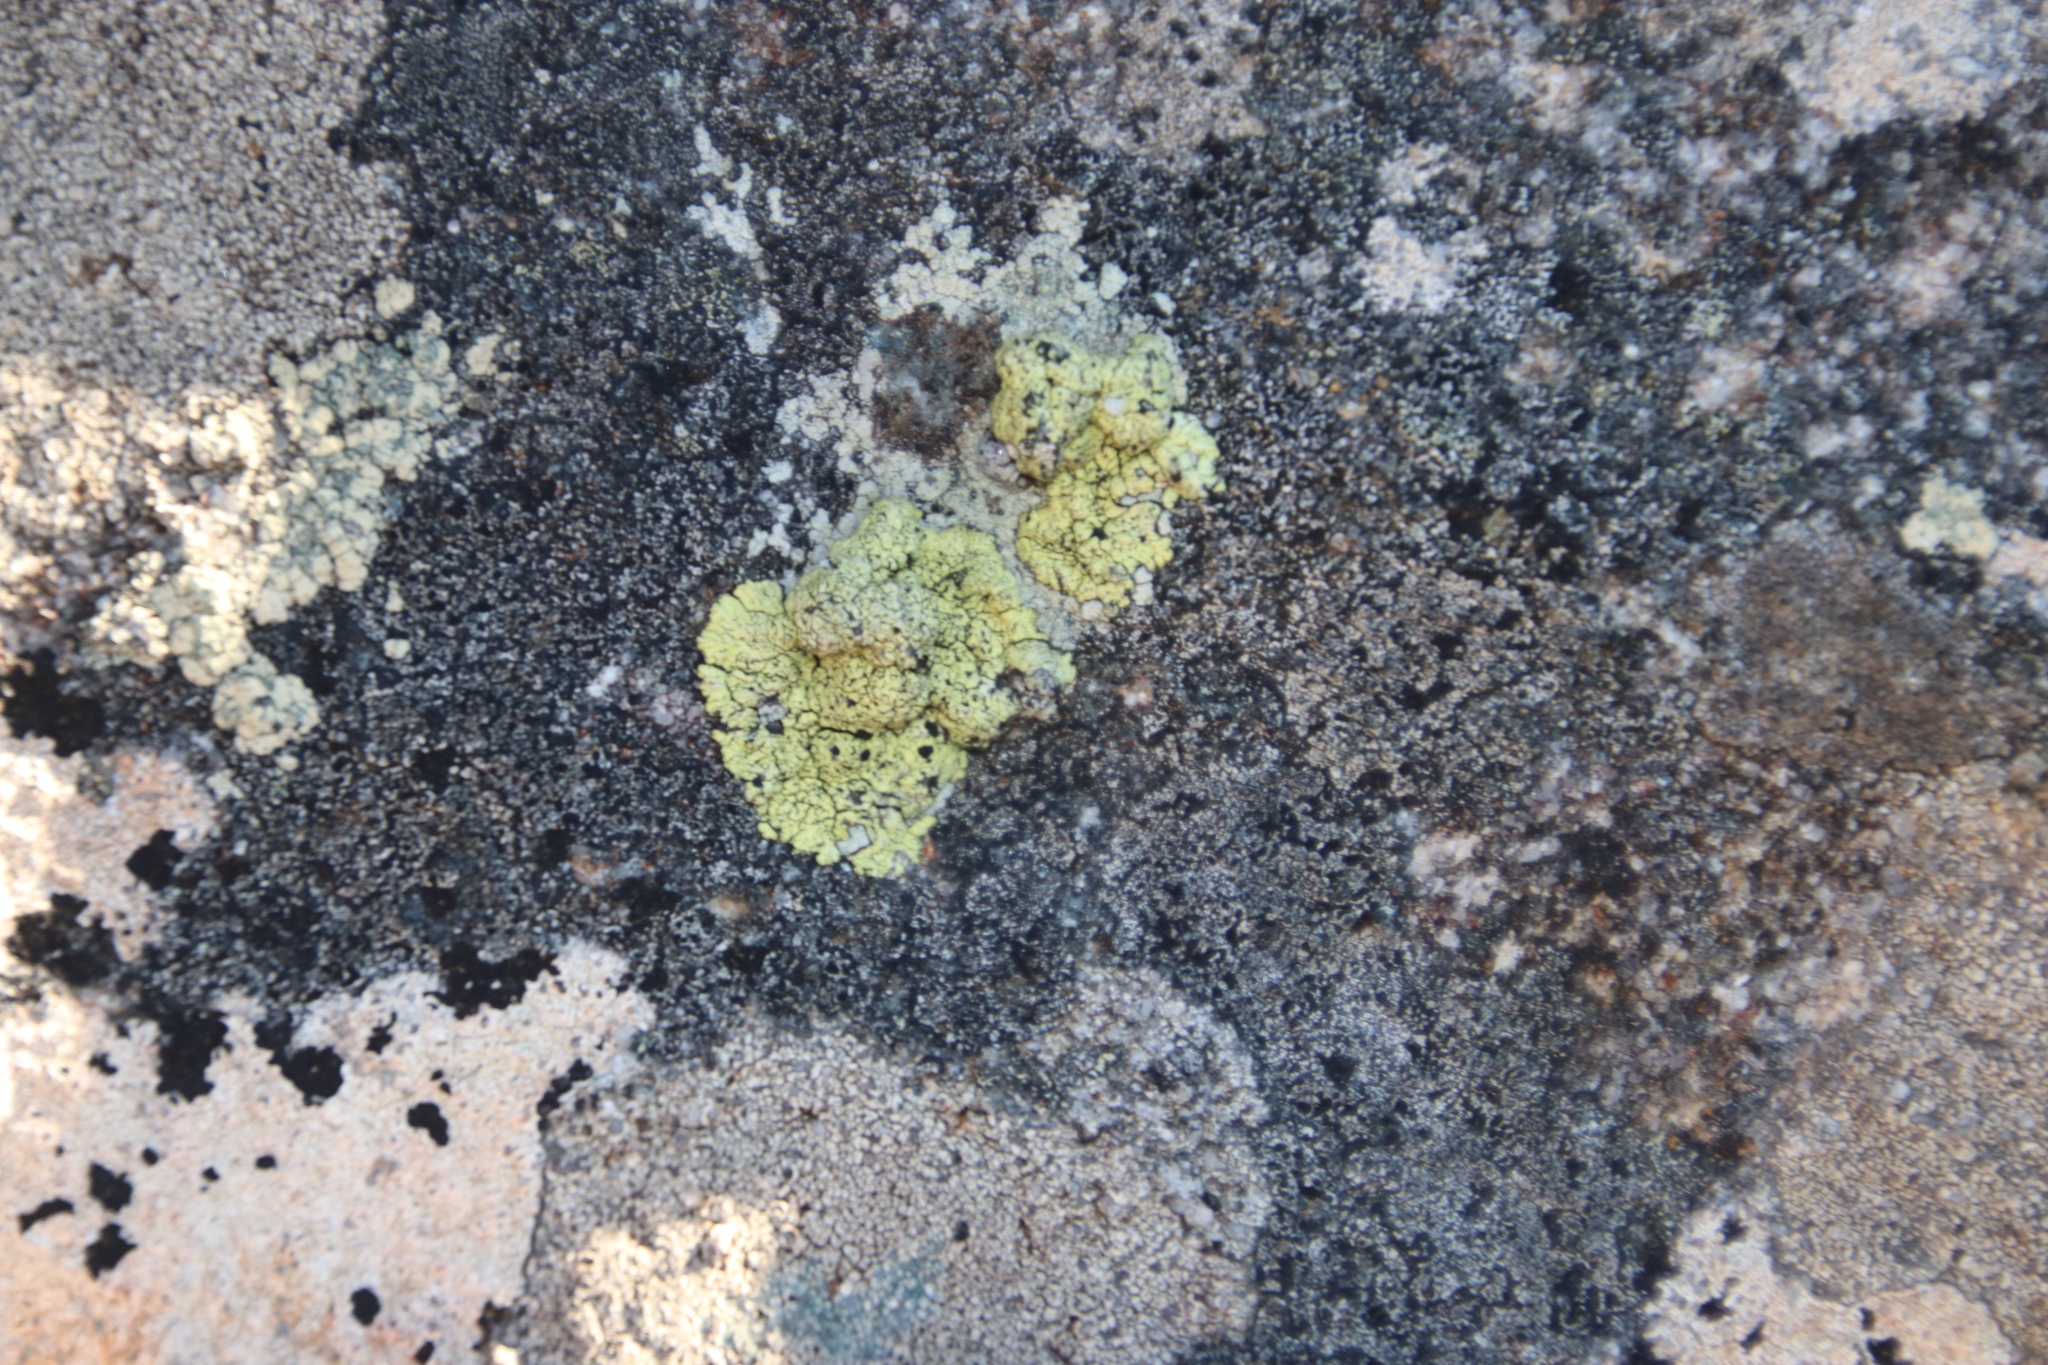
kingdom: Fungi
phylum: Ascomycota
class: Lecanoromycetes
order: Caliciales
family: Caliciaceae
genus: Diploicia
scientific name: Diploicia africana
